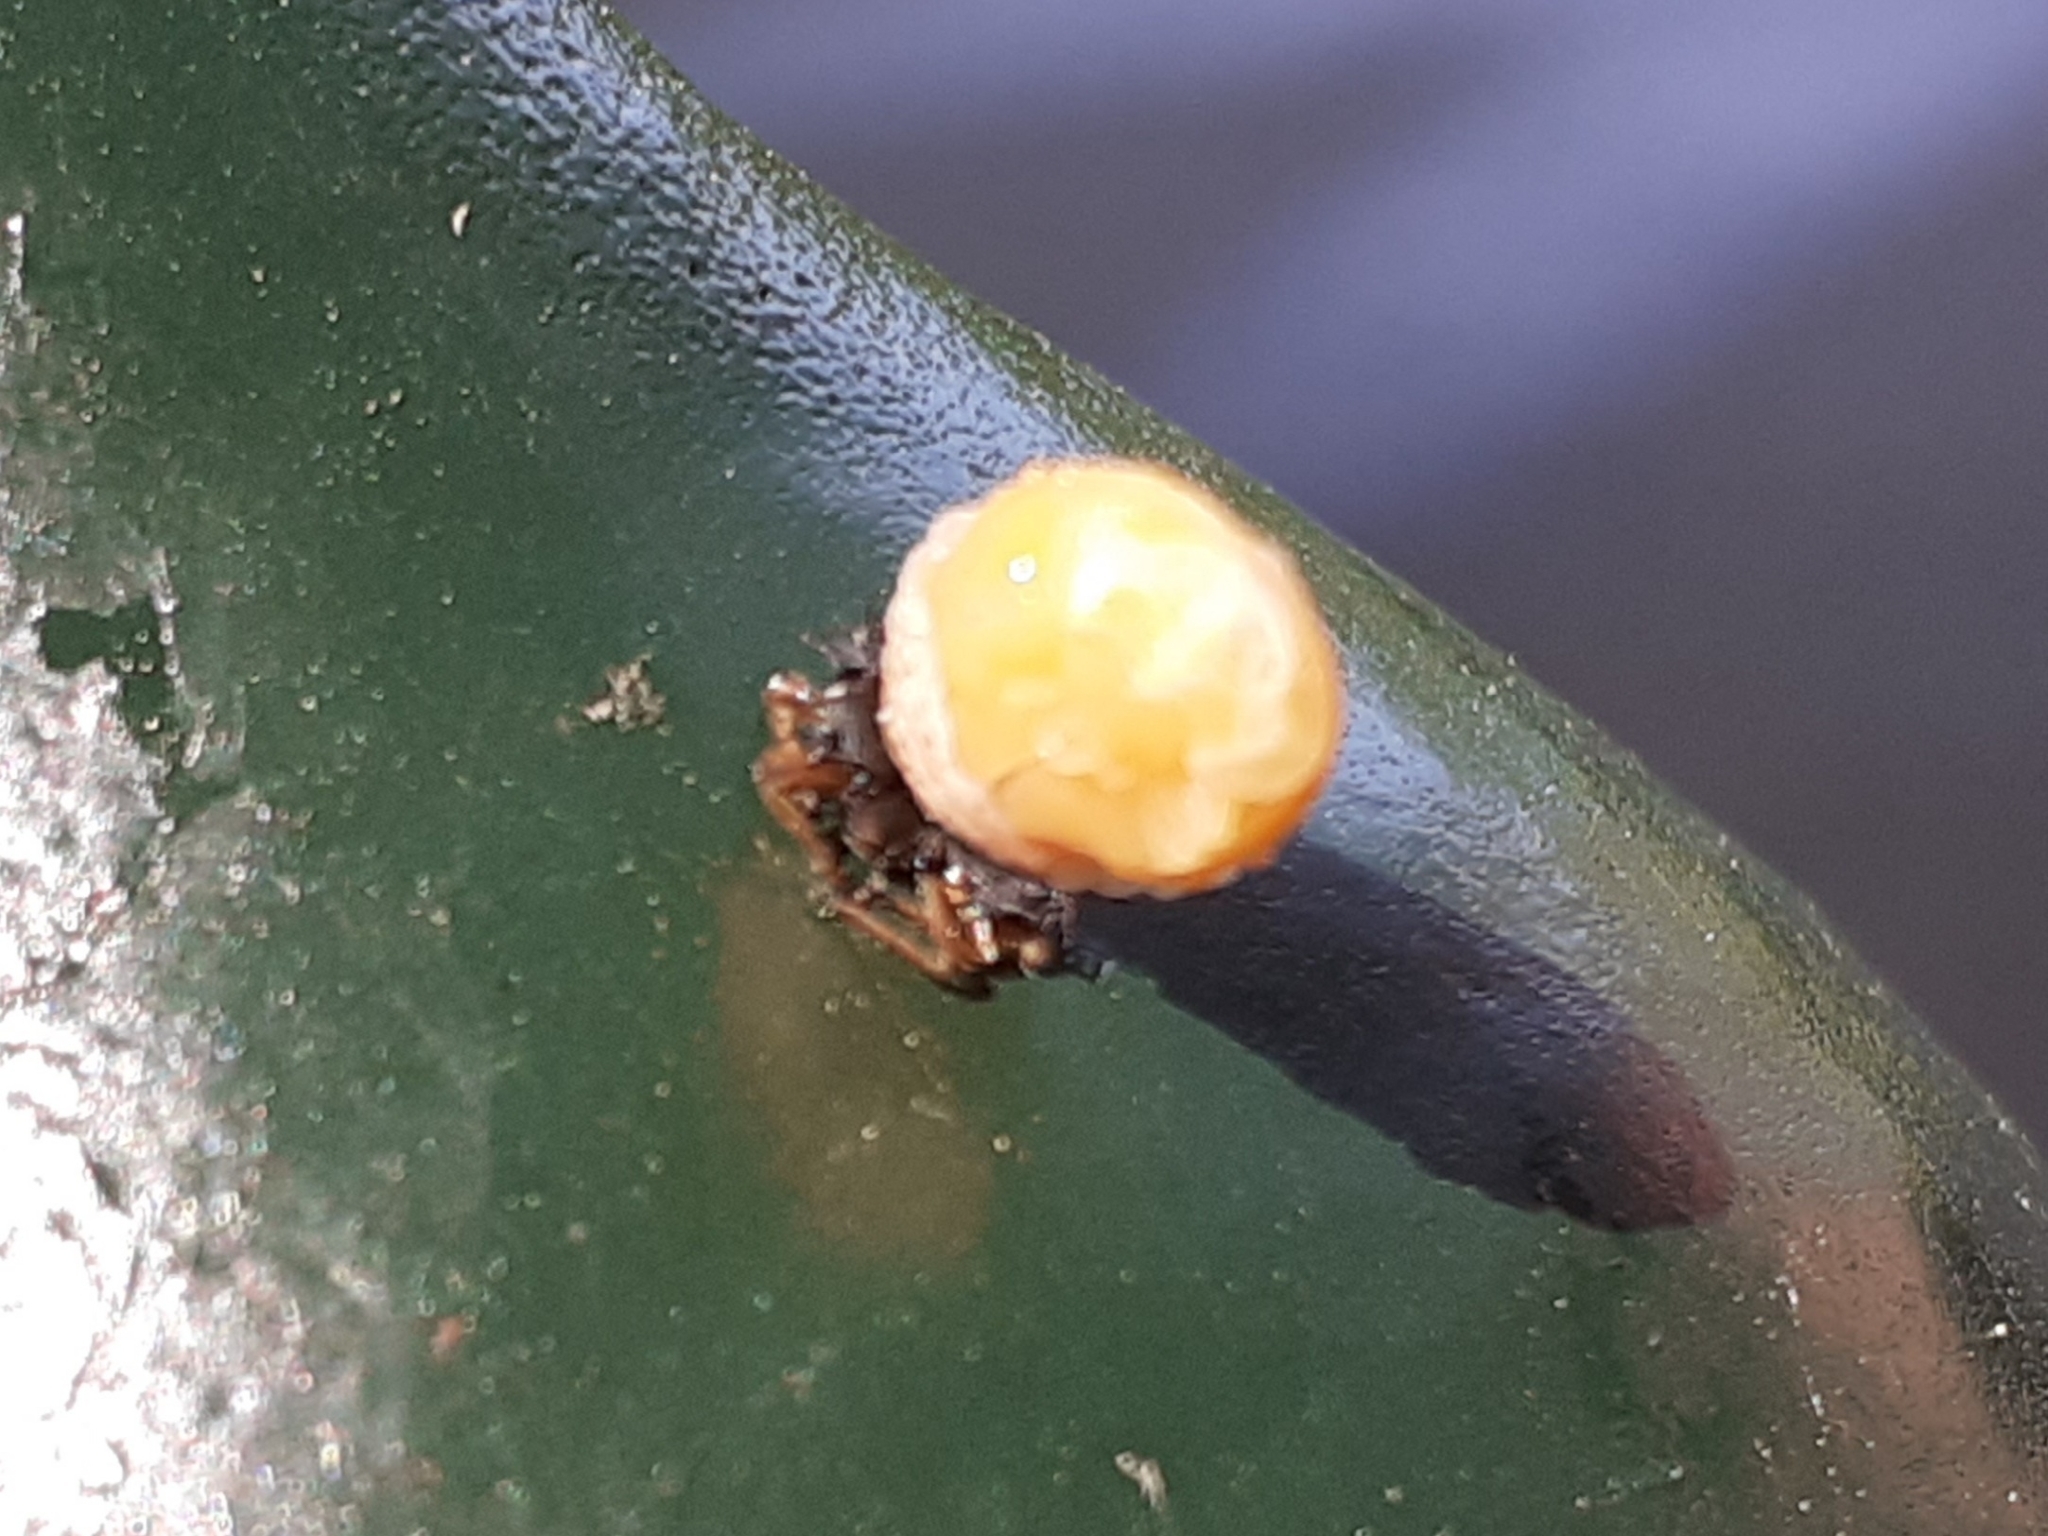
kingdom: Animalia
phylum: Arthropoda
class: Insecta
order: Coleoptera
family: Coccinellidae
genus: Harmonia
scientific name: Harmonia axyridis
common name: Harlequin ladybird
